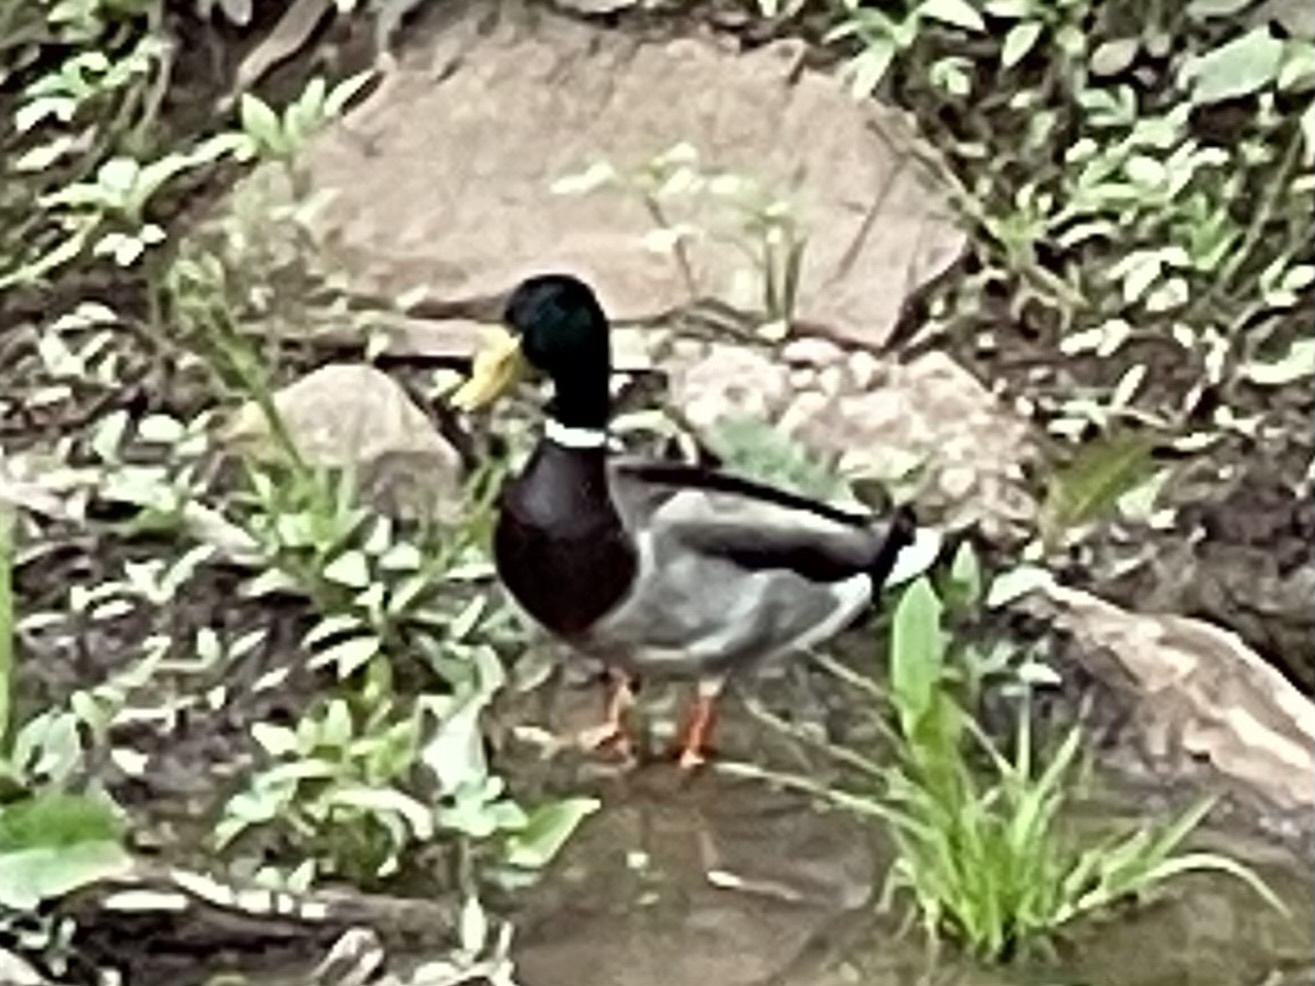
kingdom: Animalia
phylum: Chordata
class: Aves
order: Anseriformes
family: Anatidae
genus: Anas
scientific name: Anas platyrhynchos
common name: Mallard
